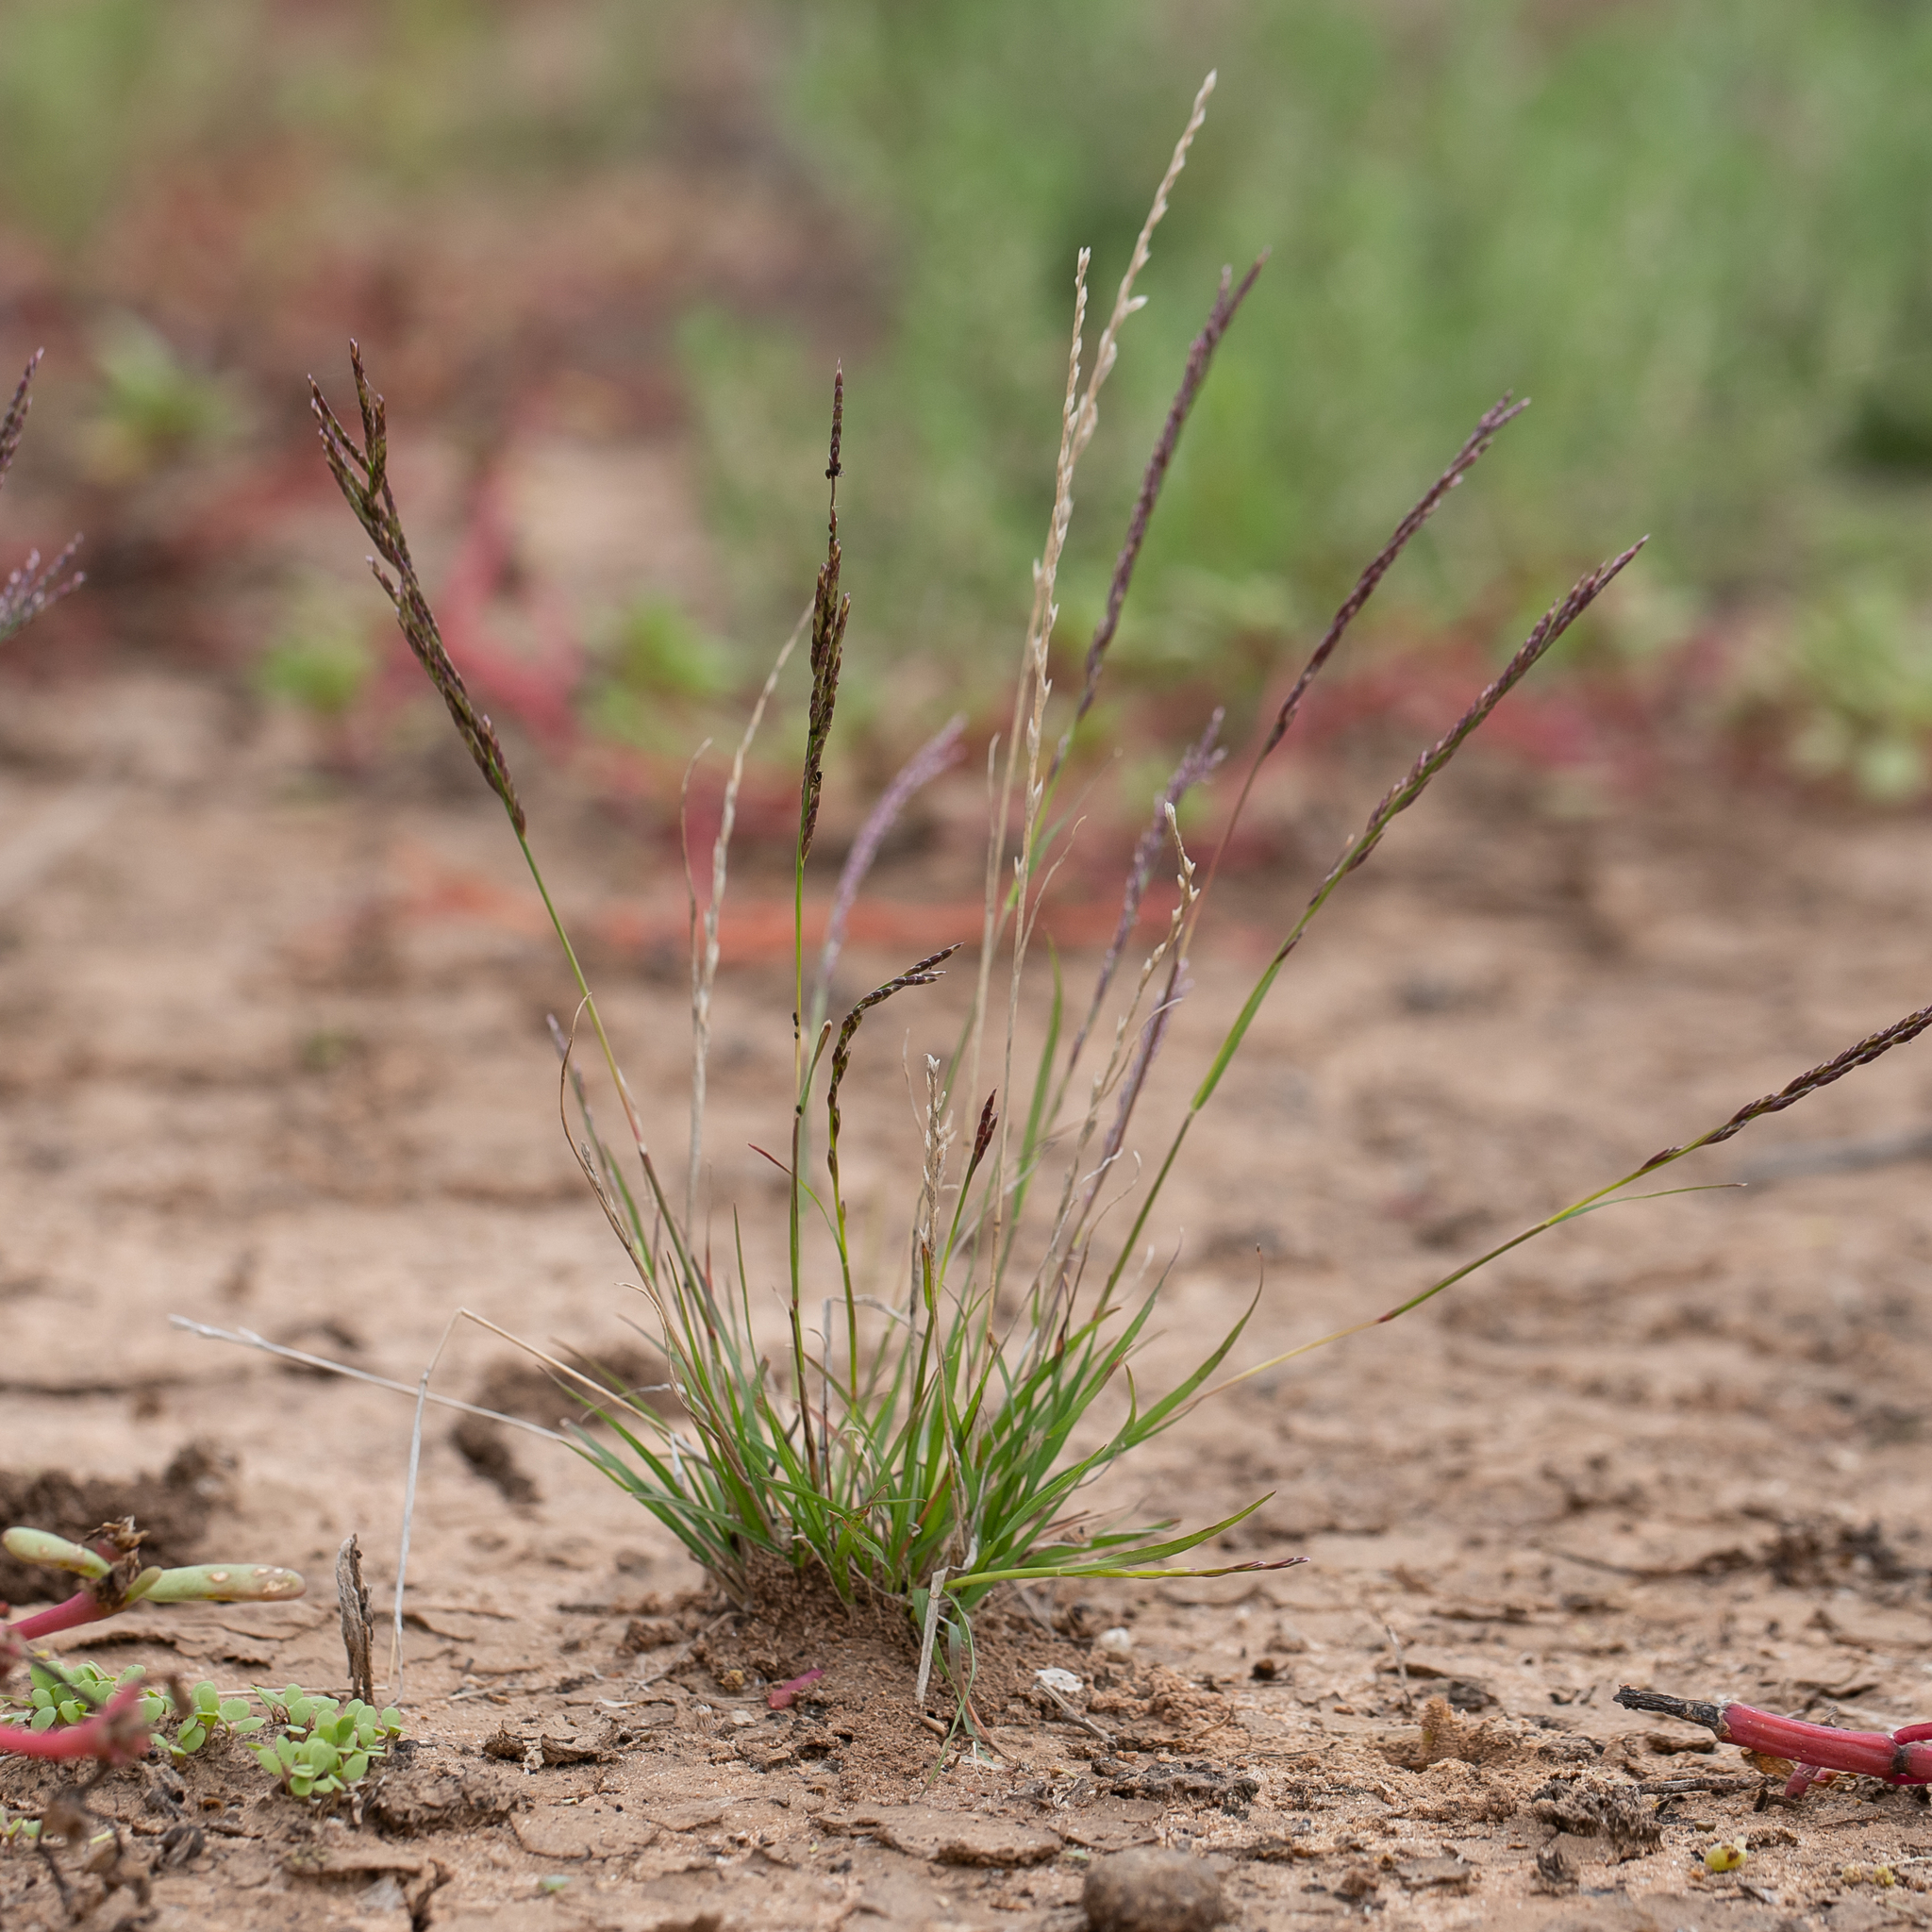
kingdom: Plantae
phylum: Tracheophyta
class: Liliopsida
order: Poales
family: Poaceae
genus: Tripogonella
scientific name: Tripogonella loliiformis
